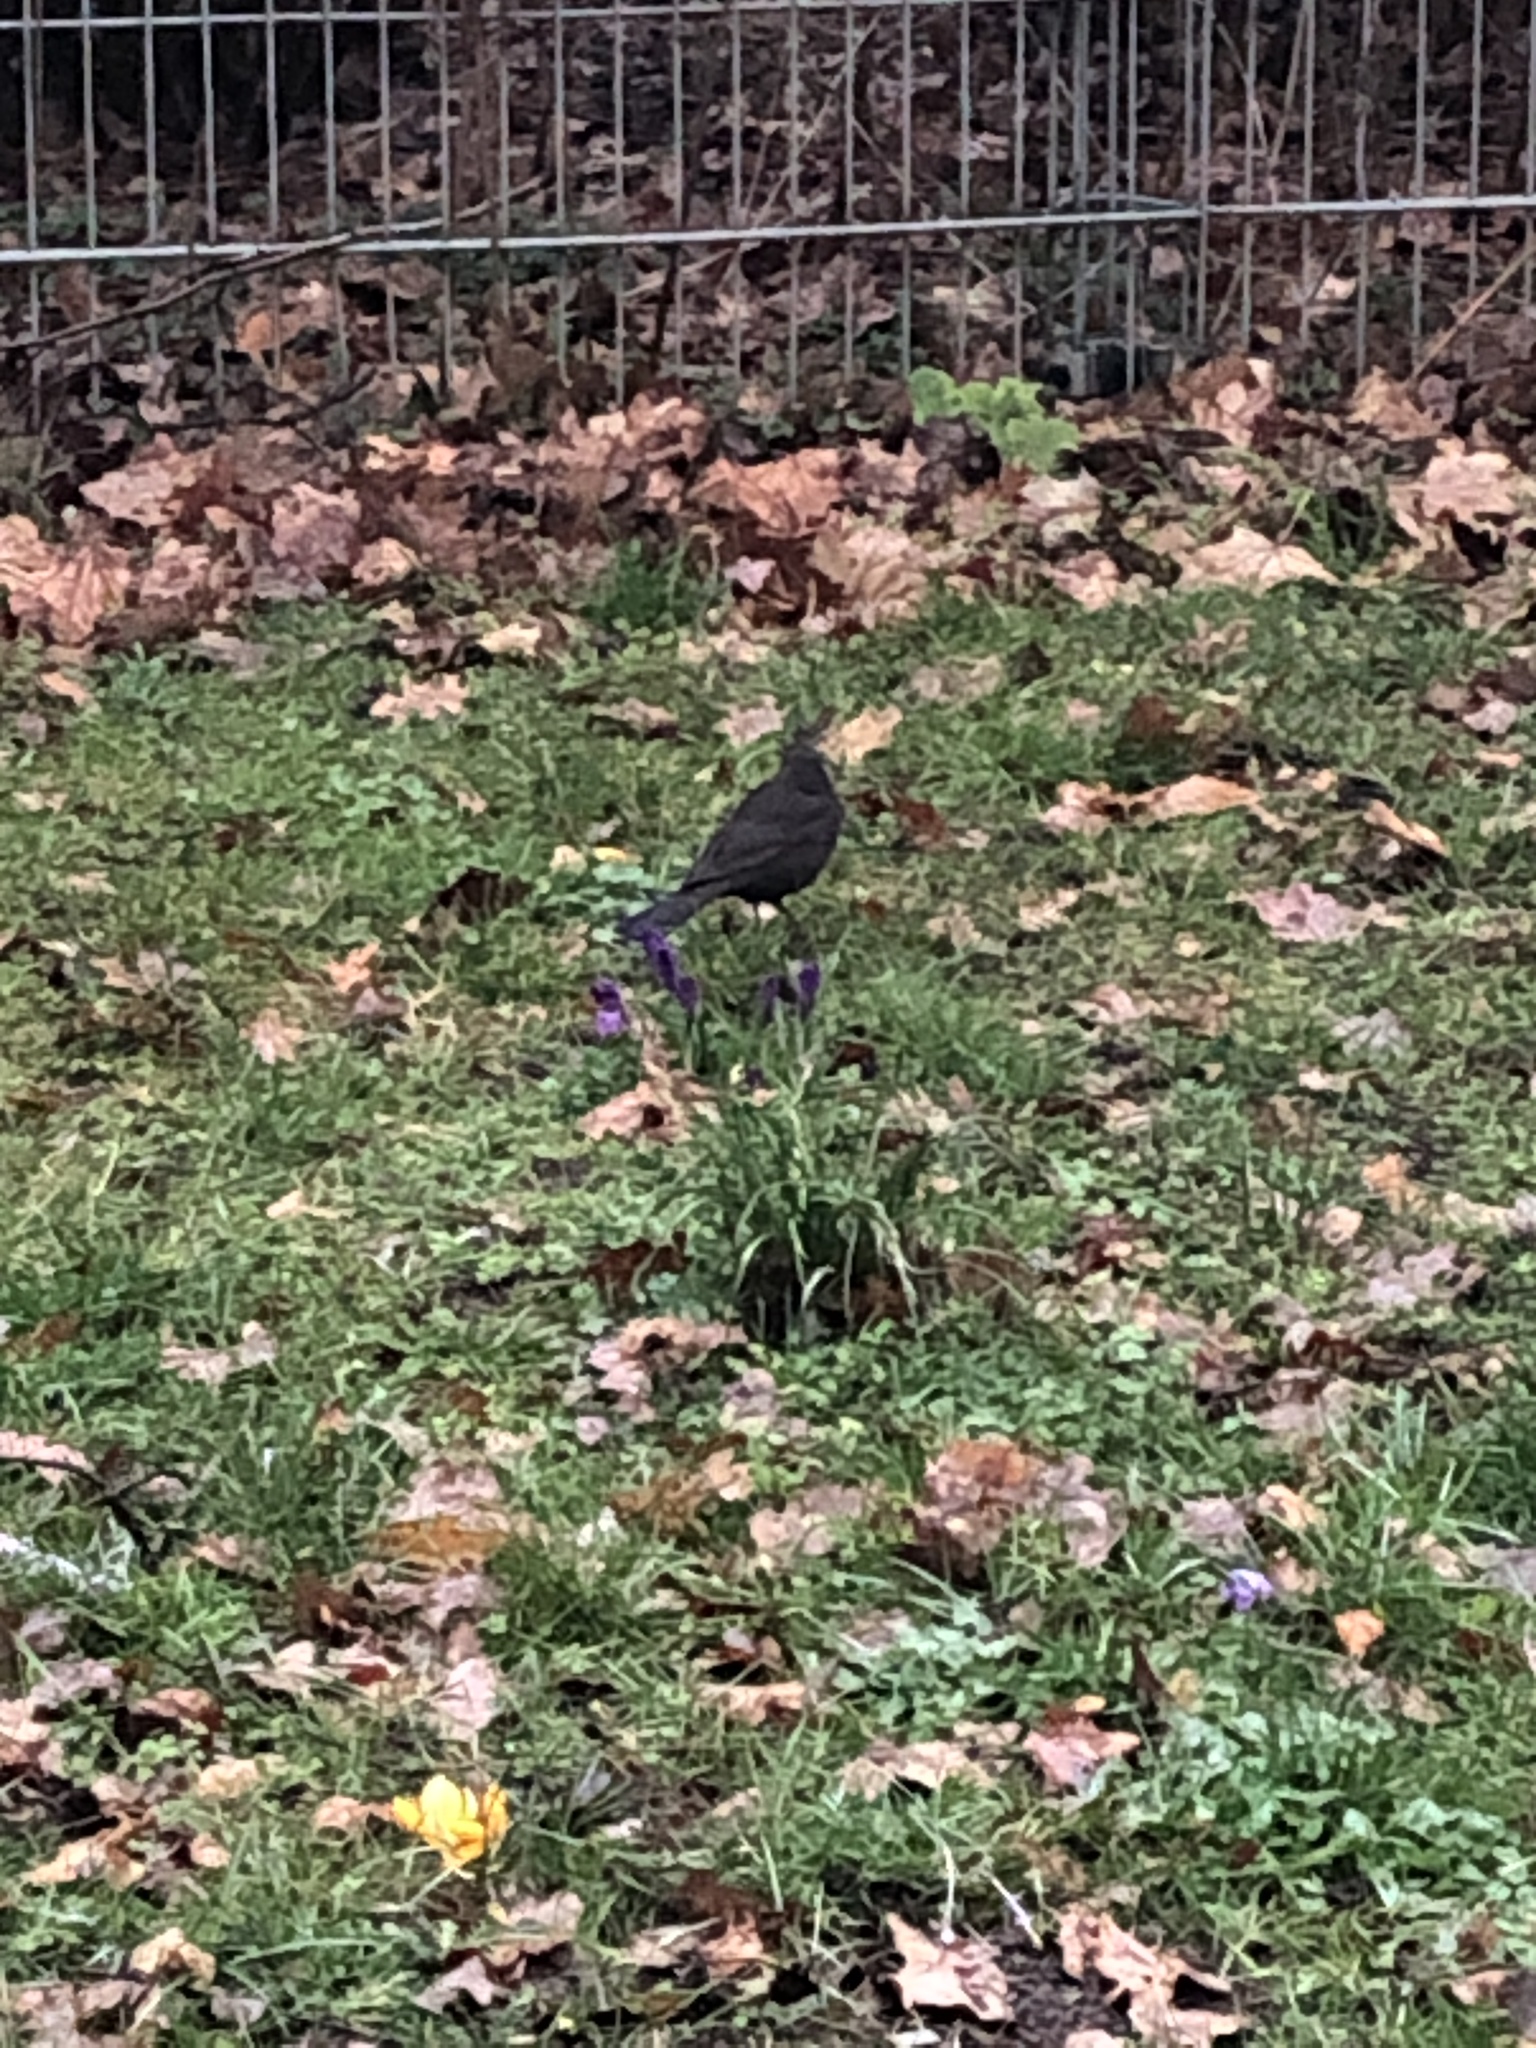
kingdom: Animalia
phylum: Chordata
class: Aves
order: Passeriformes
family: Turdidae
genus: Turdus
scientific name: Turdus merula
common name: Common blackbird
